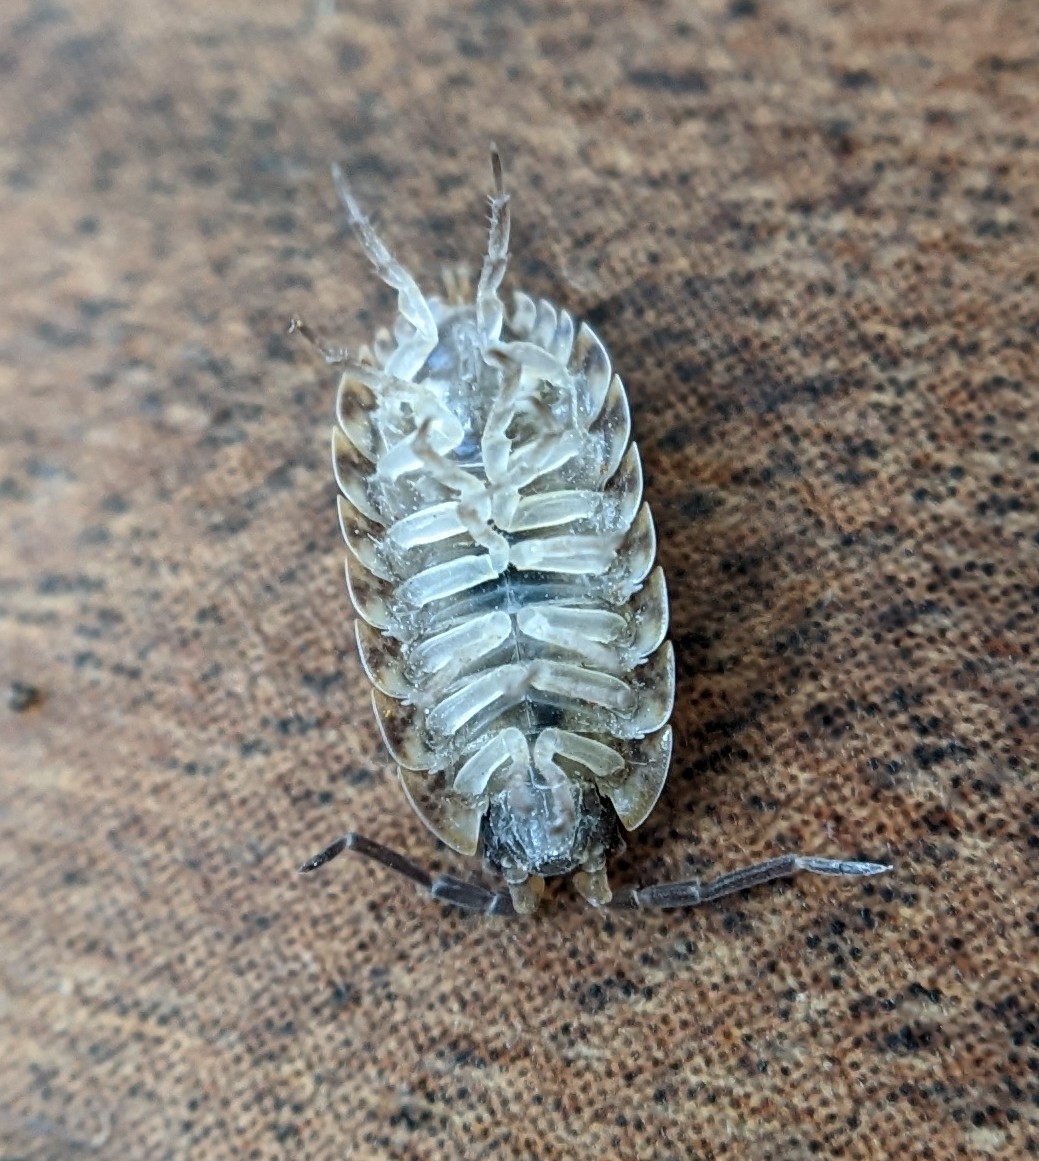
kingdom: Animalia
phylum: Arthropoda
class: Malacostraca
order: Isopoda
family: Porcellionidae
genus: Porcellio
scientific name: Porcellio spinicornis
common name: Painted woodlouse
